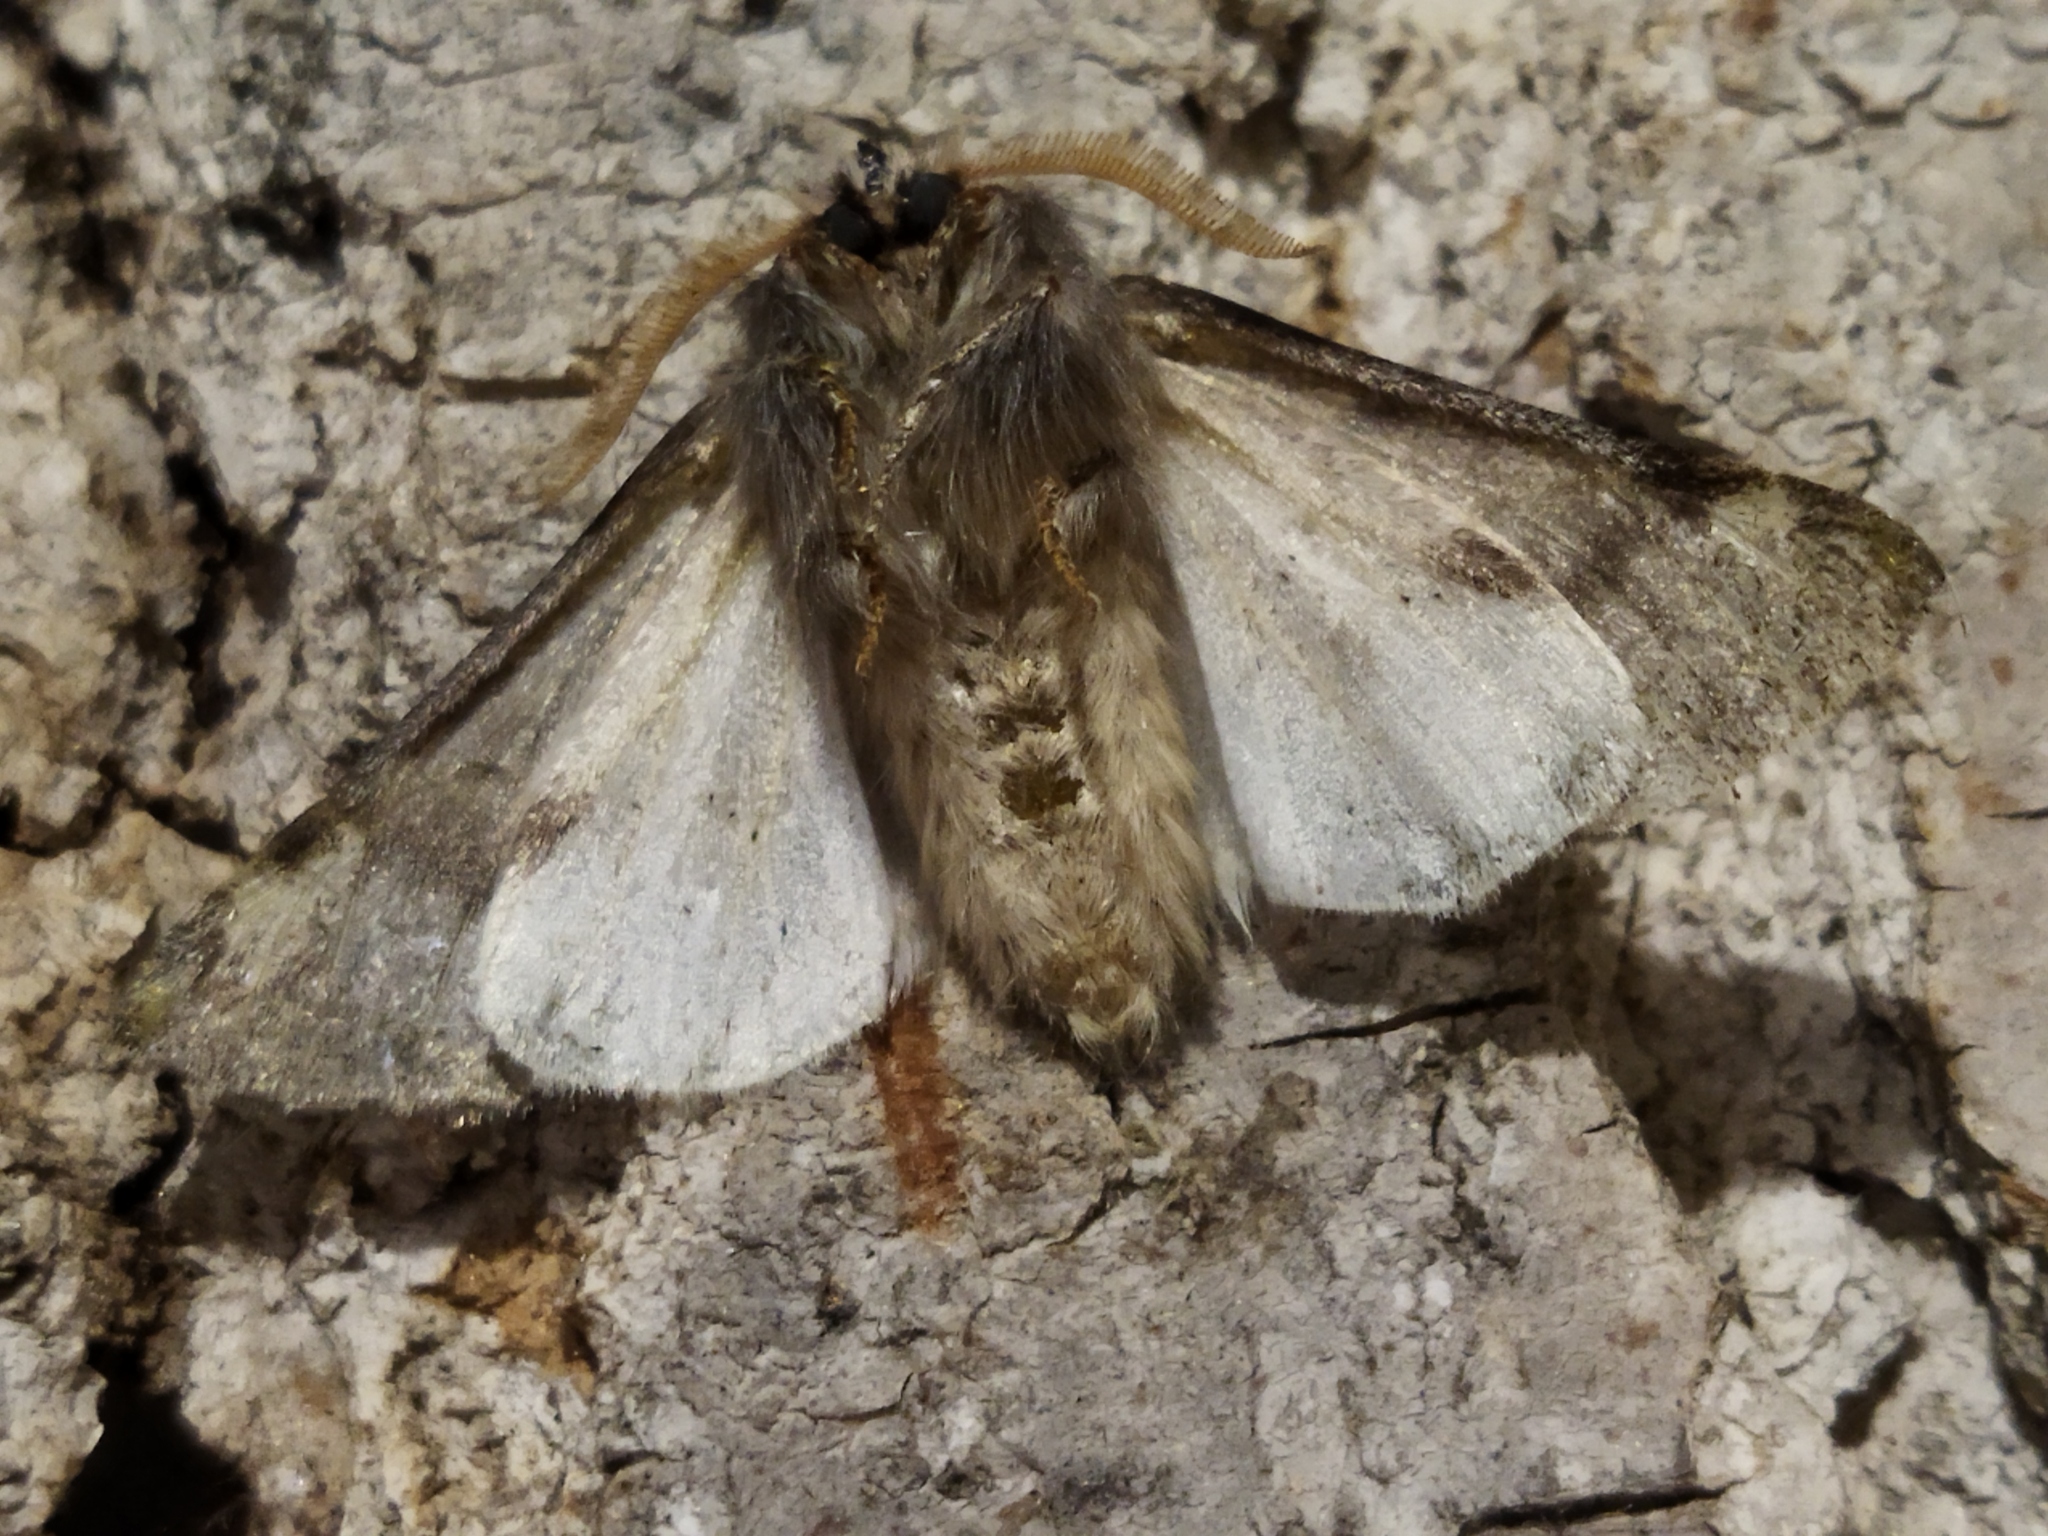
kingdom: Animalia
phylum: Arthropoda
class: Insecta
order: Lepidoptera
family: Notodontidae
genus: Thaumetopoea
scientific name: Thaumetopoea pityocampa
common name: Pine processionary
